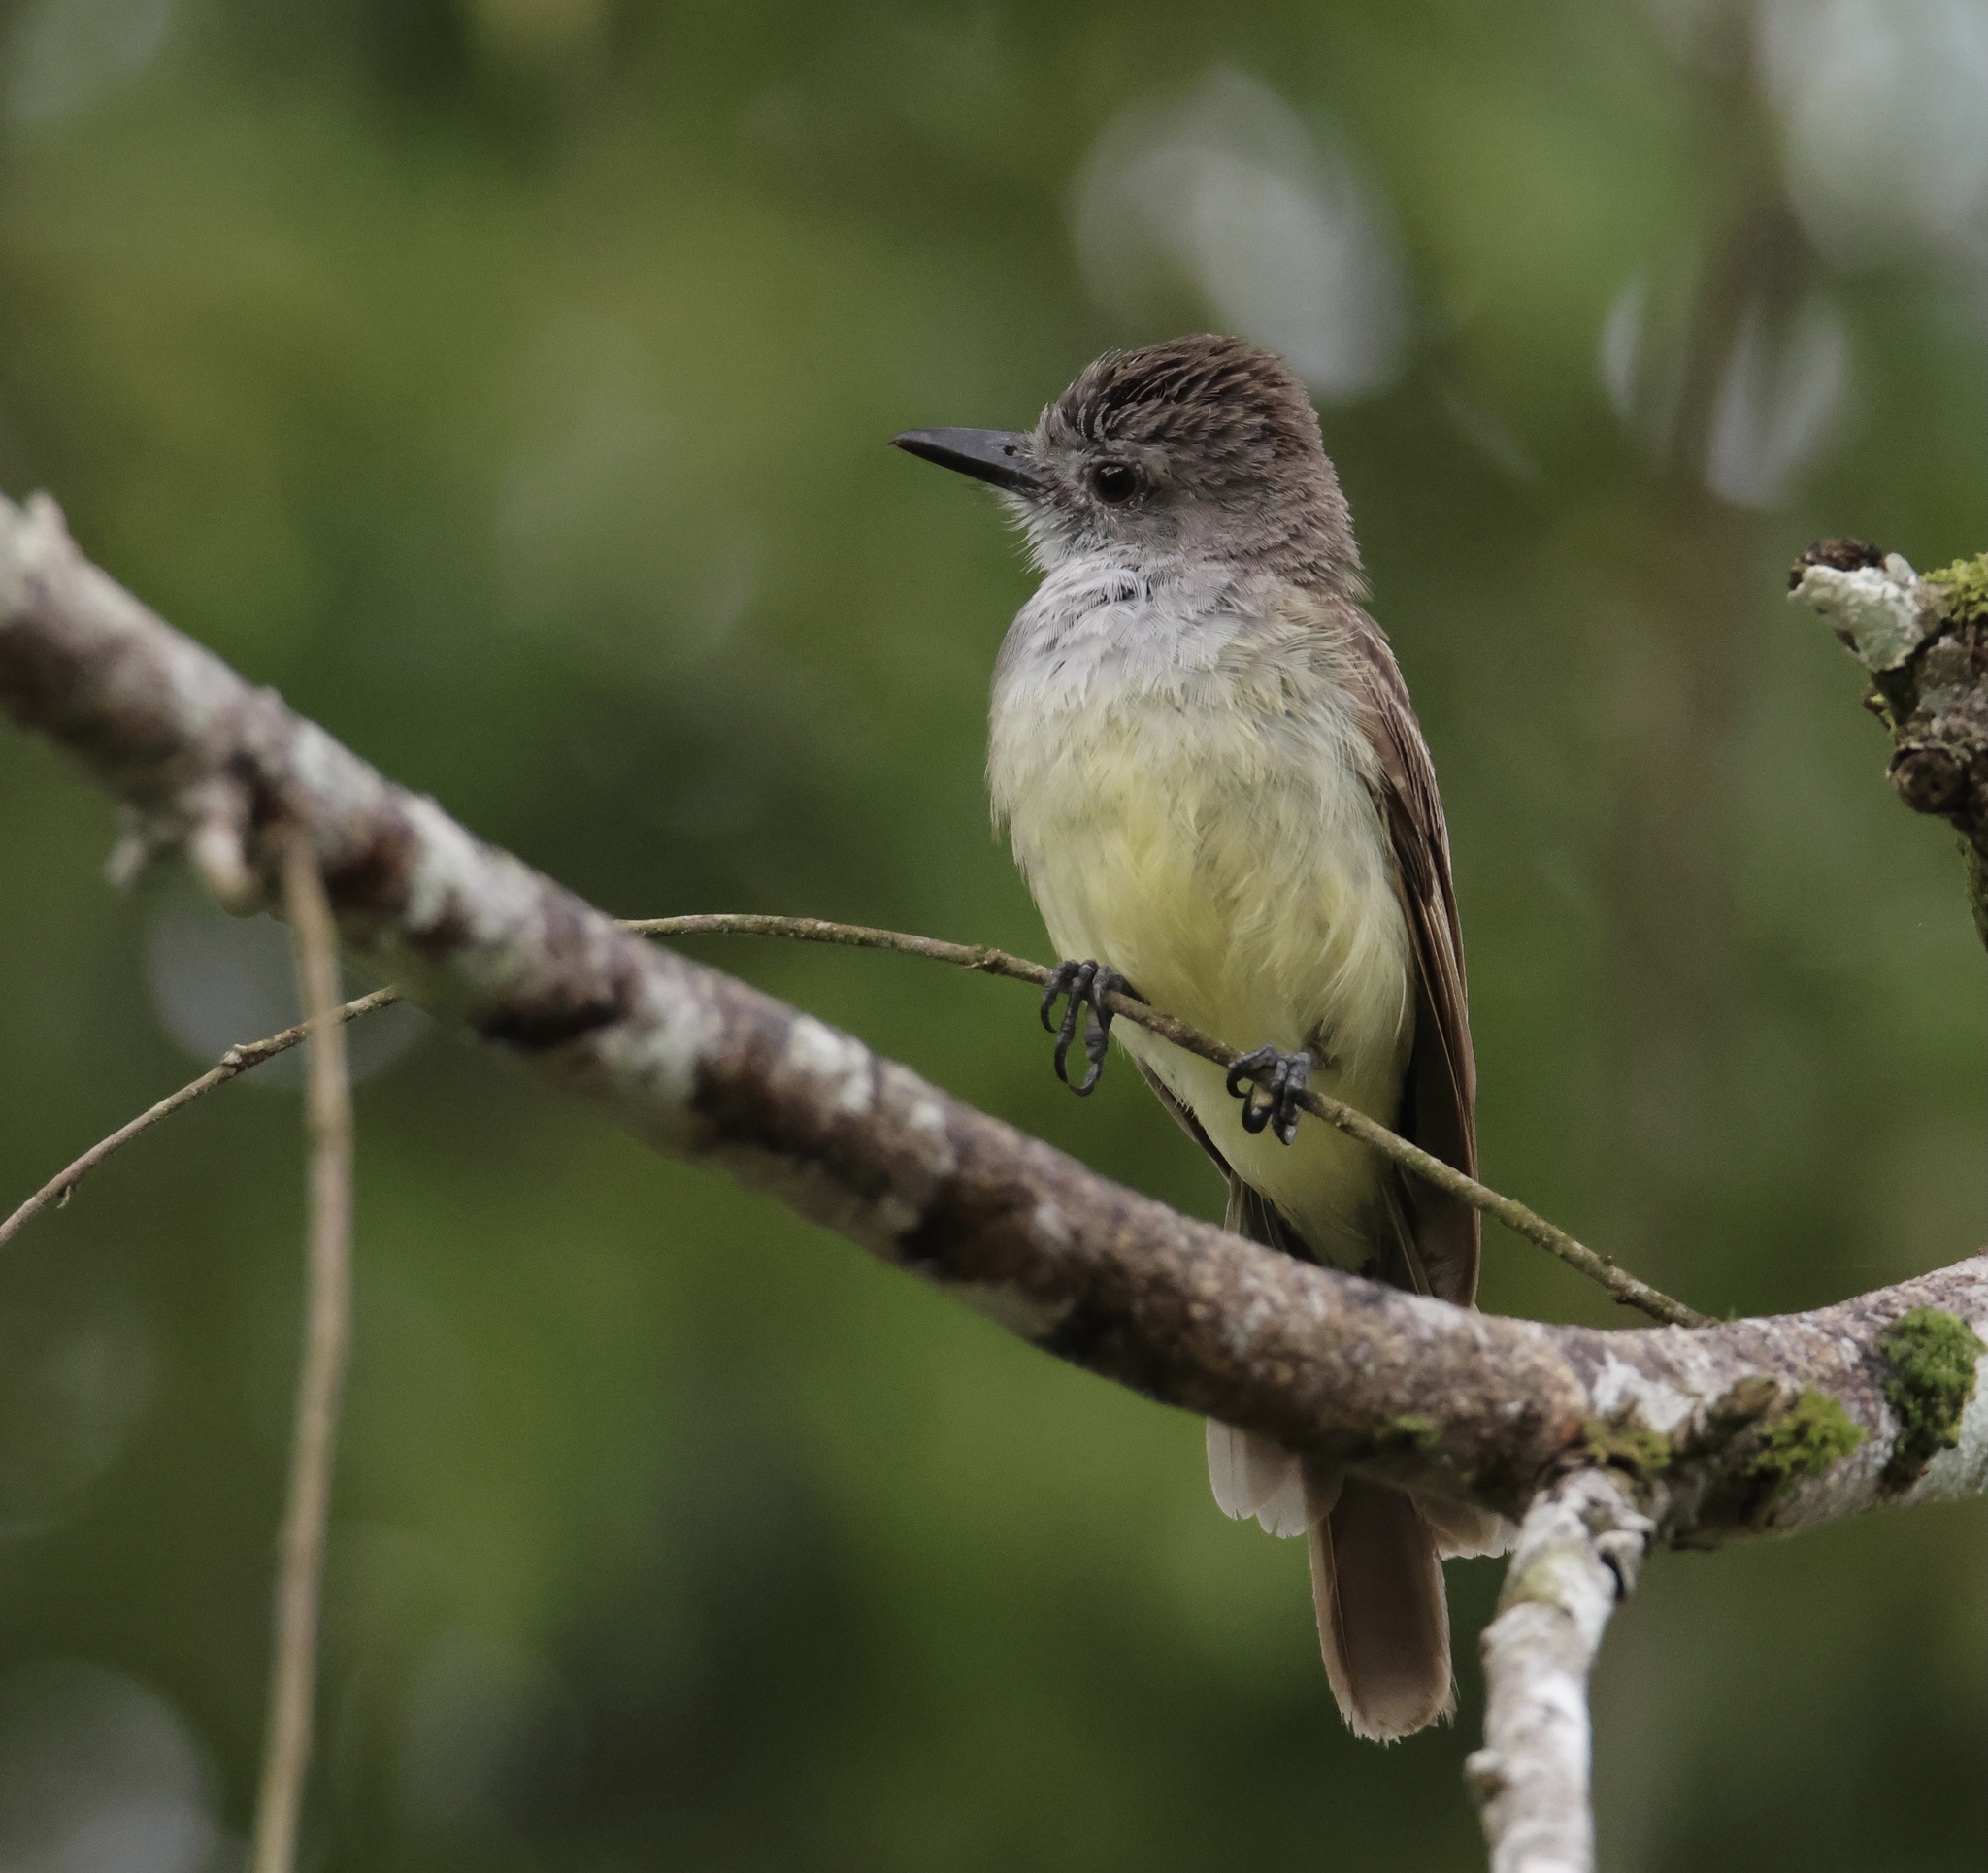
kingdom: Animalia
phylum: Chordata
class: Aves
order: Passeriformes
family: Tyrannidae
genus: Myiarchus
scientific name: Myiarchus panamensis
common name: Panama flycatcher
